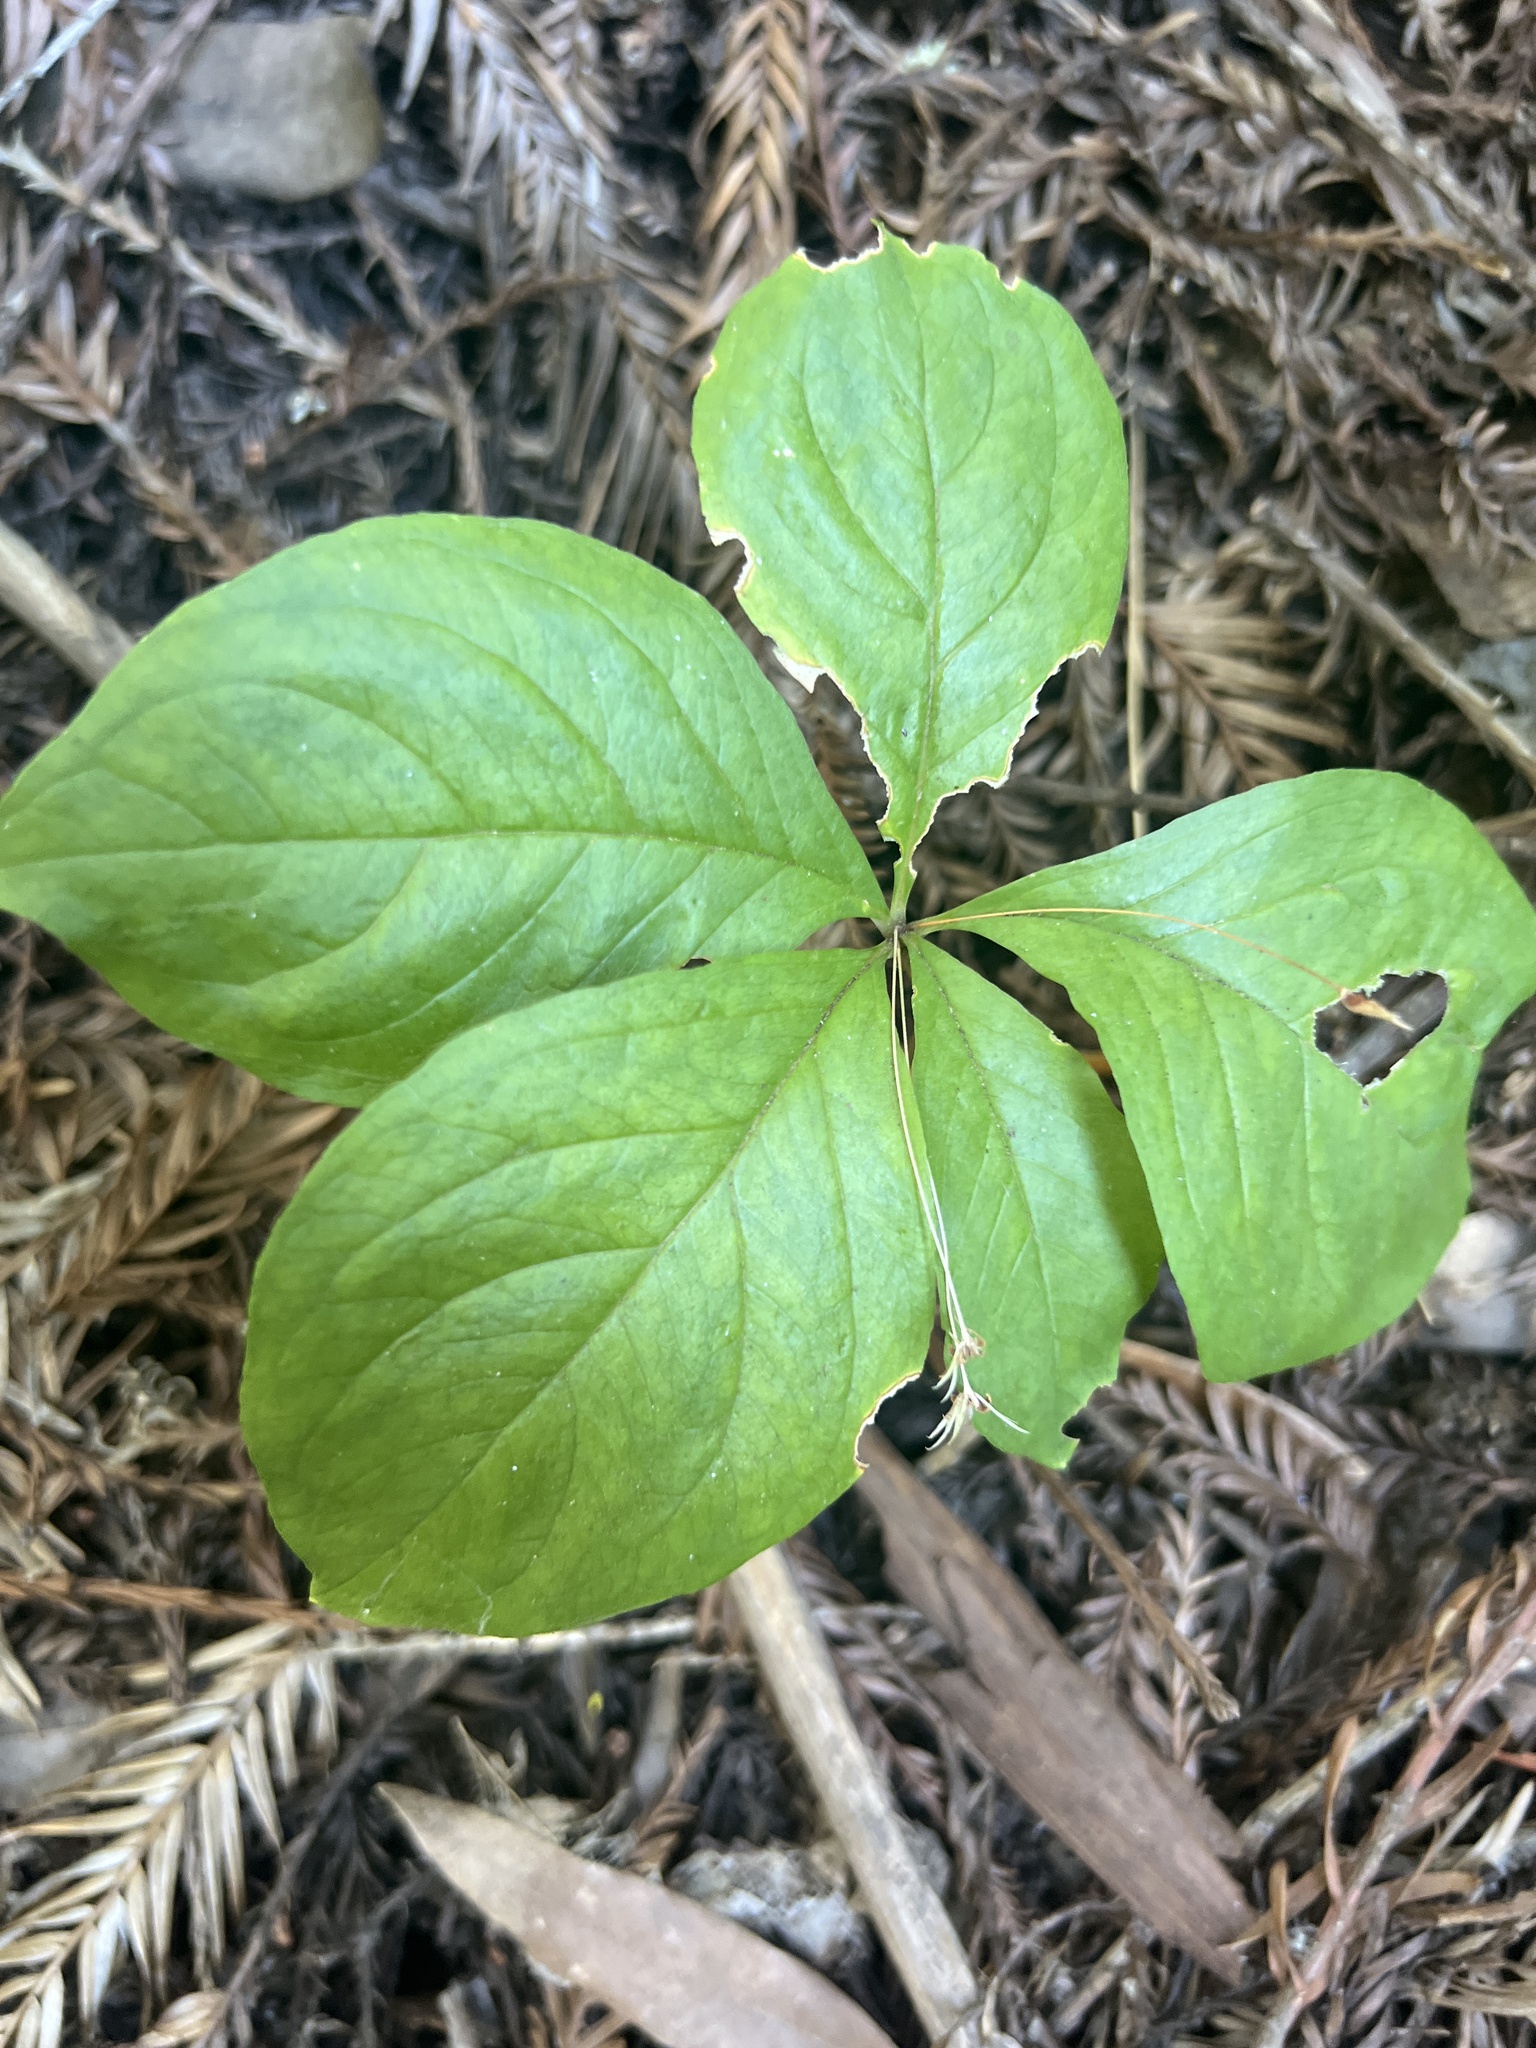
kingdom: Plantae
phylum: Tracheophyta
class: Magnoliopsida
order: Ericales
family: Primulaceae
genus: Lysimachia
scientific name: Lysimachia latifolia
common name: Pacific starflower
